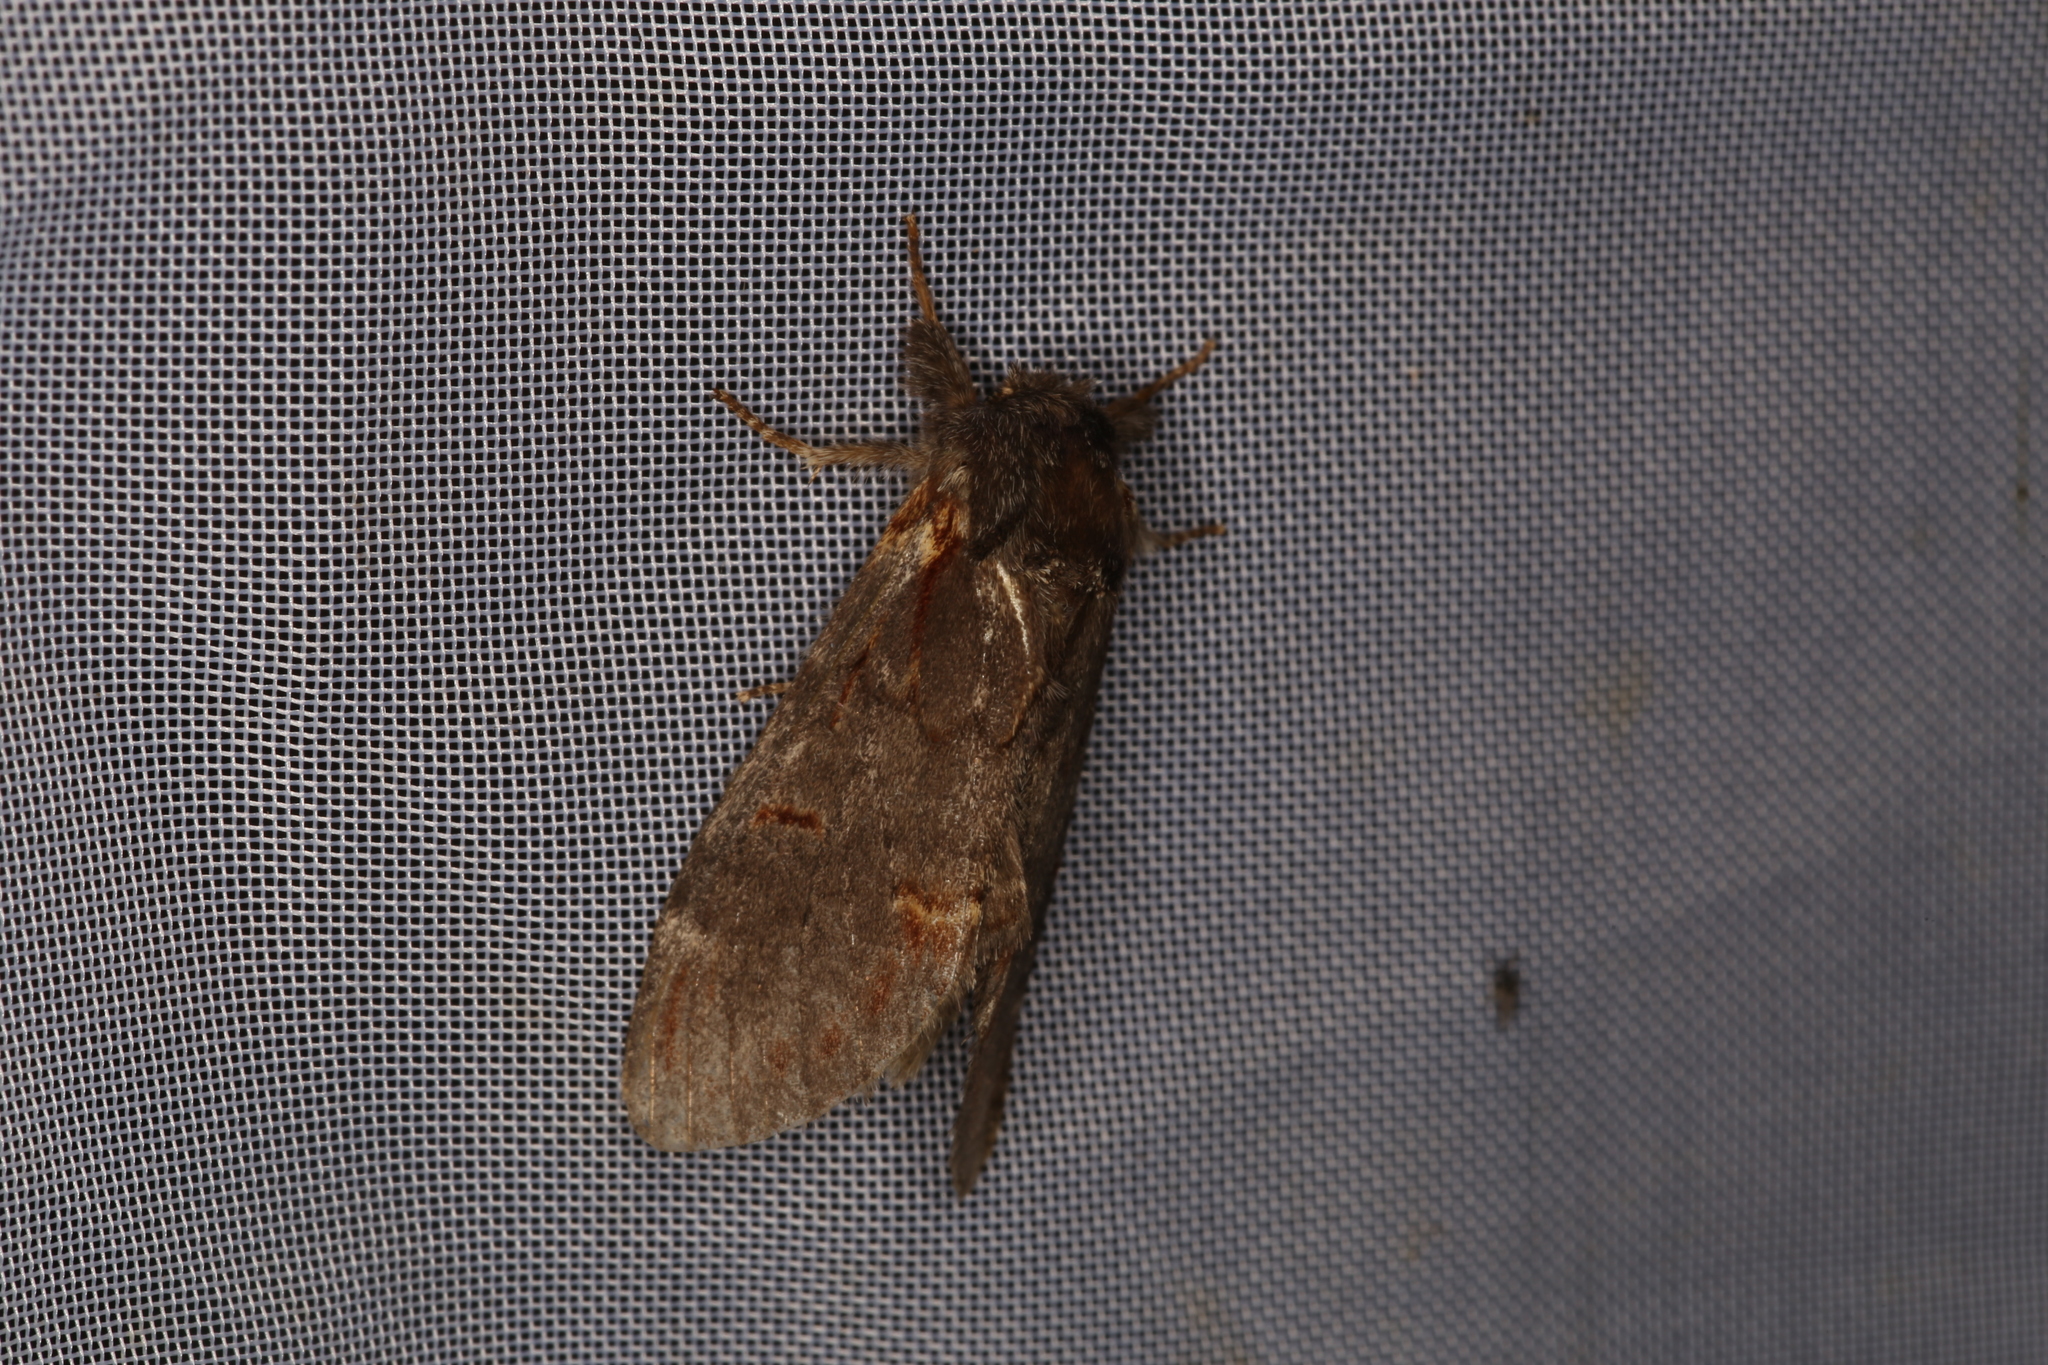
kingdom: Animalia
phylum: Arthropoda
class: Insecta
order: Lepidoptera
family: Notodontidae
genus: Notodonta
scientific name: Notodonta dromedarius
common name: Iron prominent
